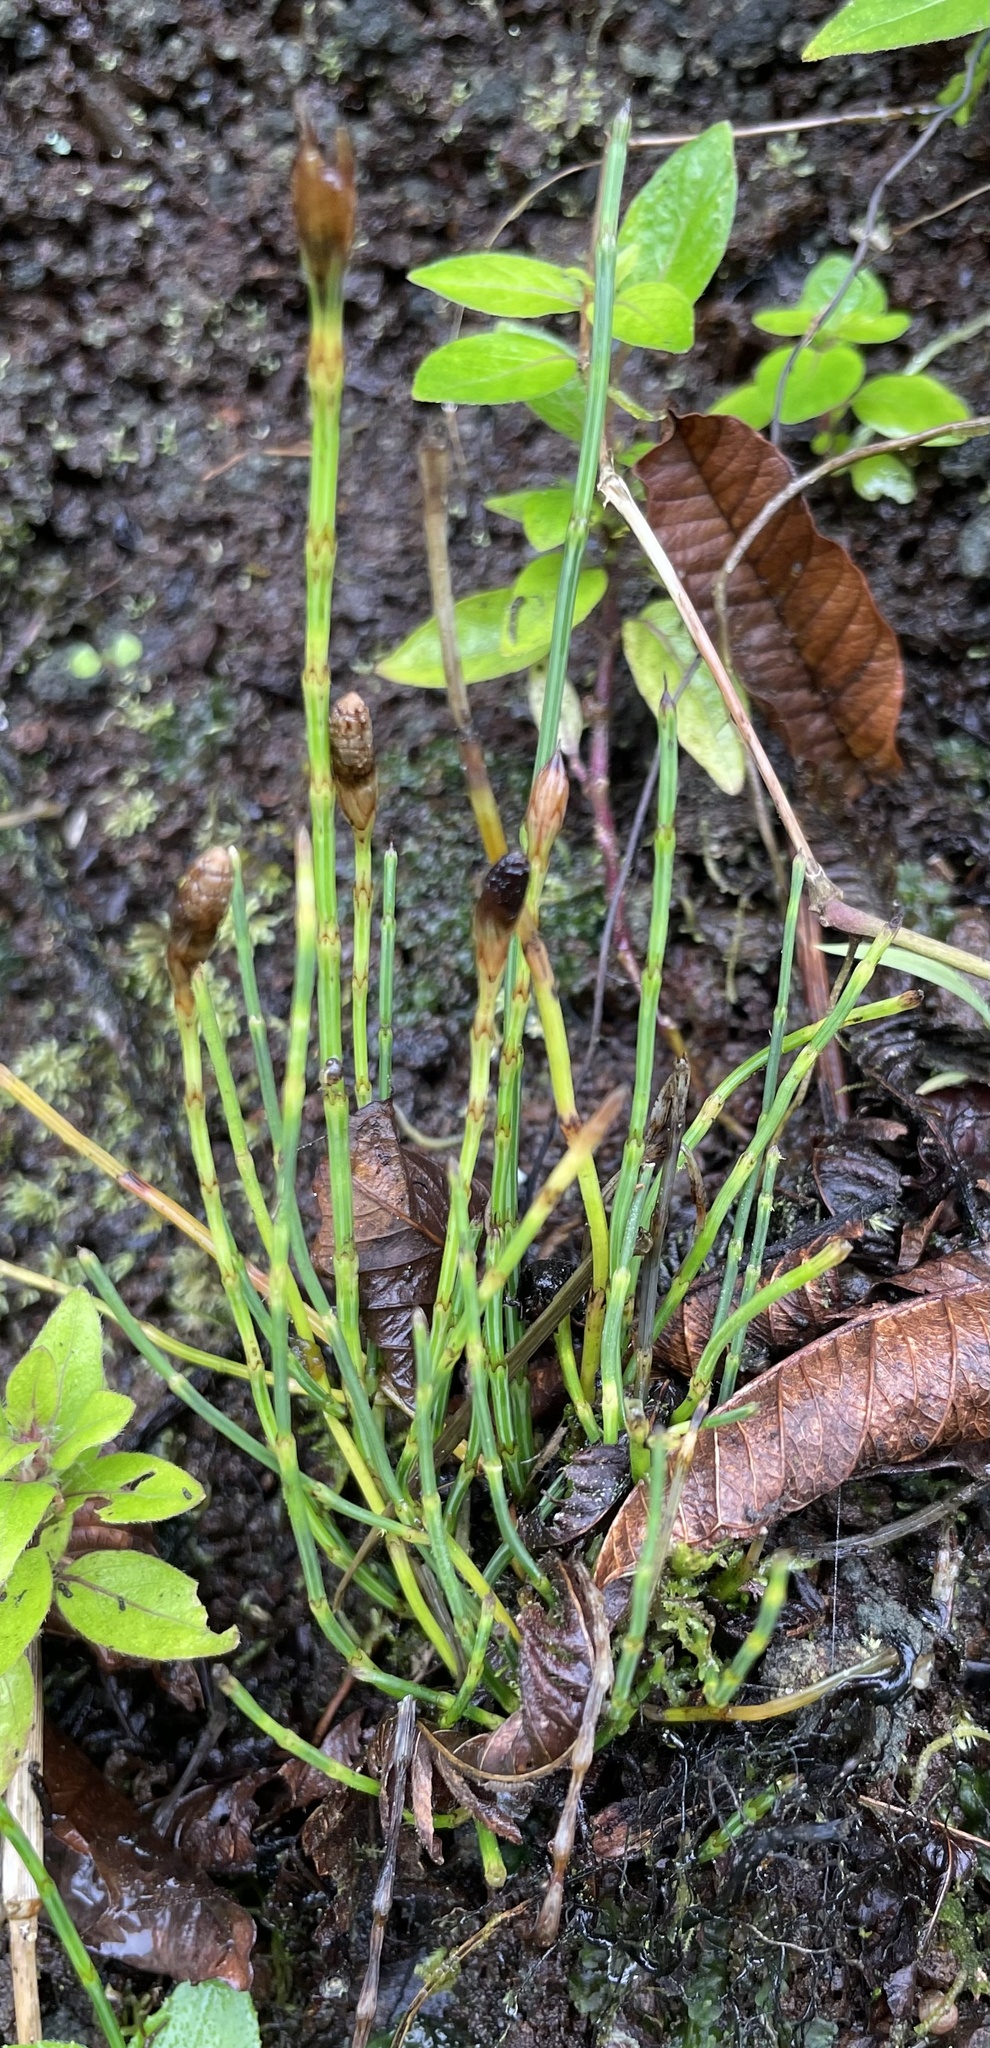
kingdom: Plantae
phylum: Tracheophyta
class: Polypodiopsida
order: Equisetales
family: Equisetaceae
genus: Equisetum
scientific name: Equisetum bogotense
